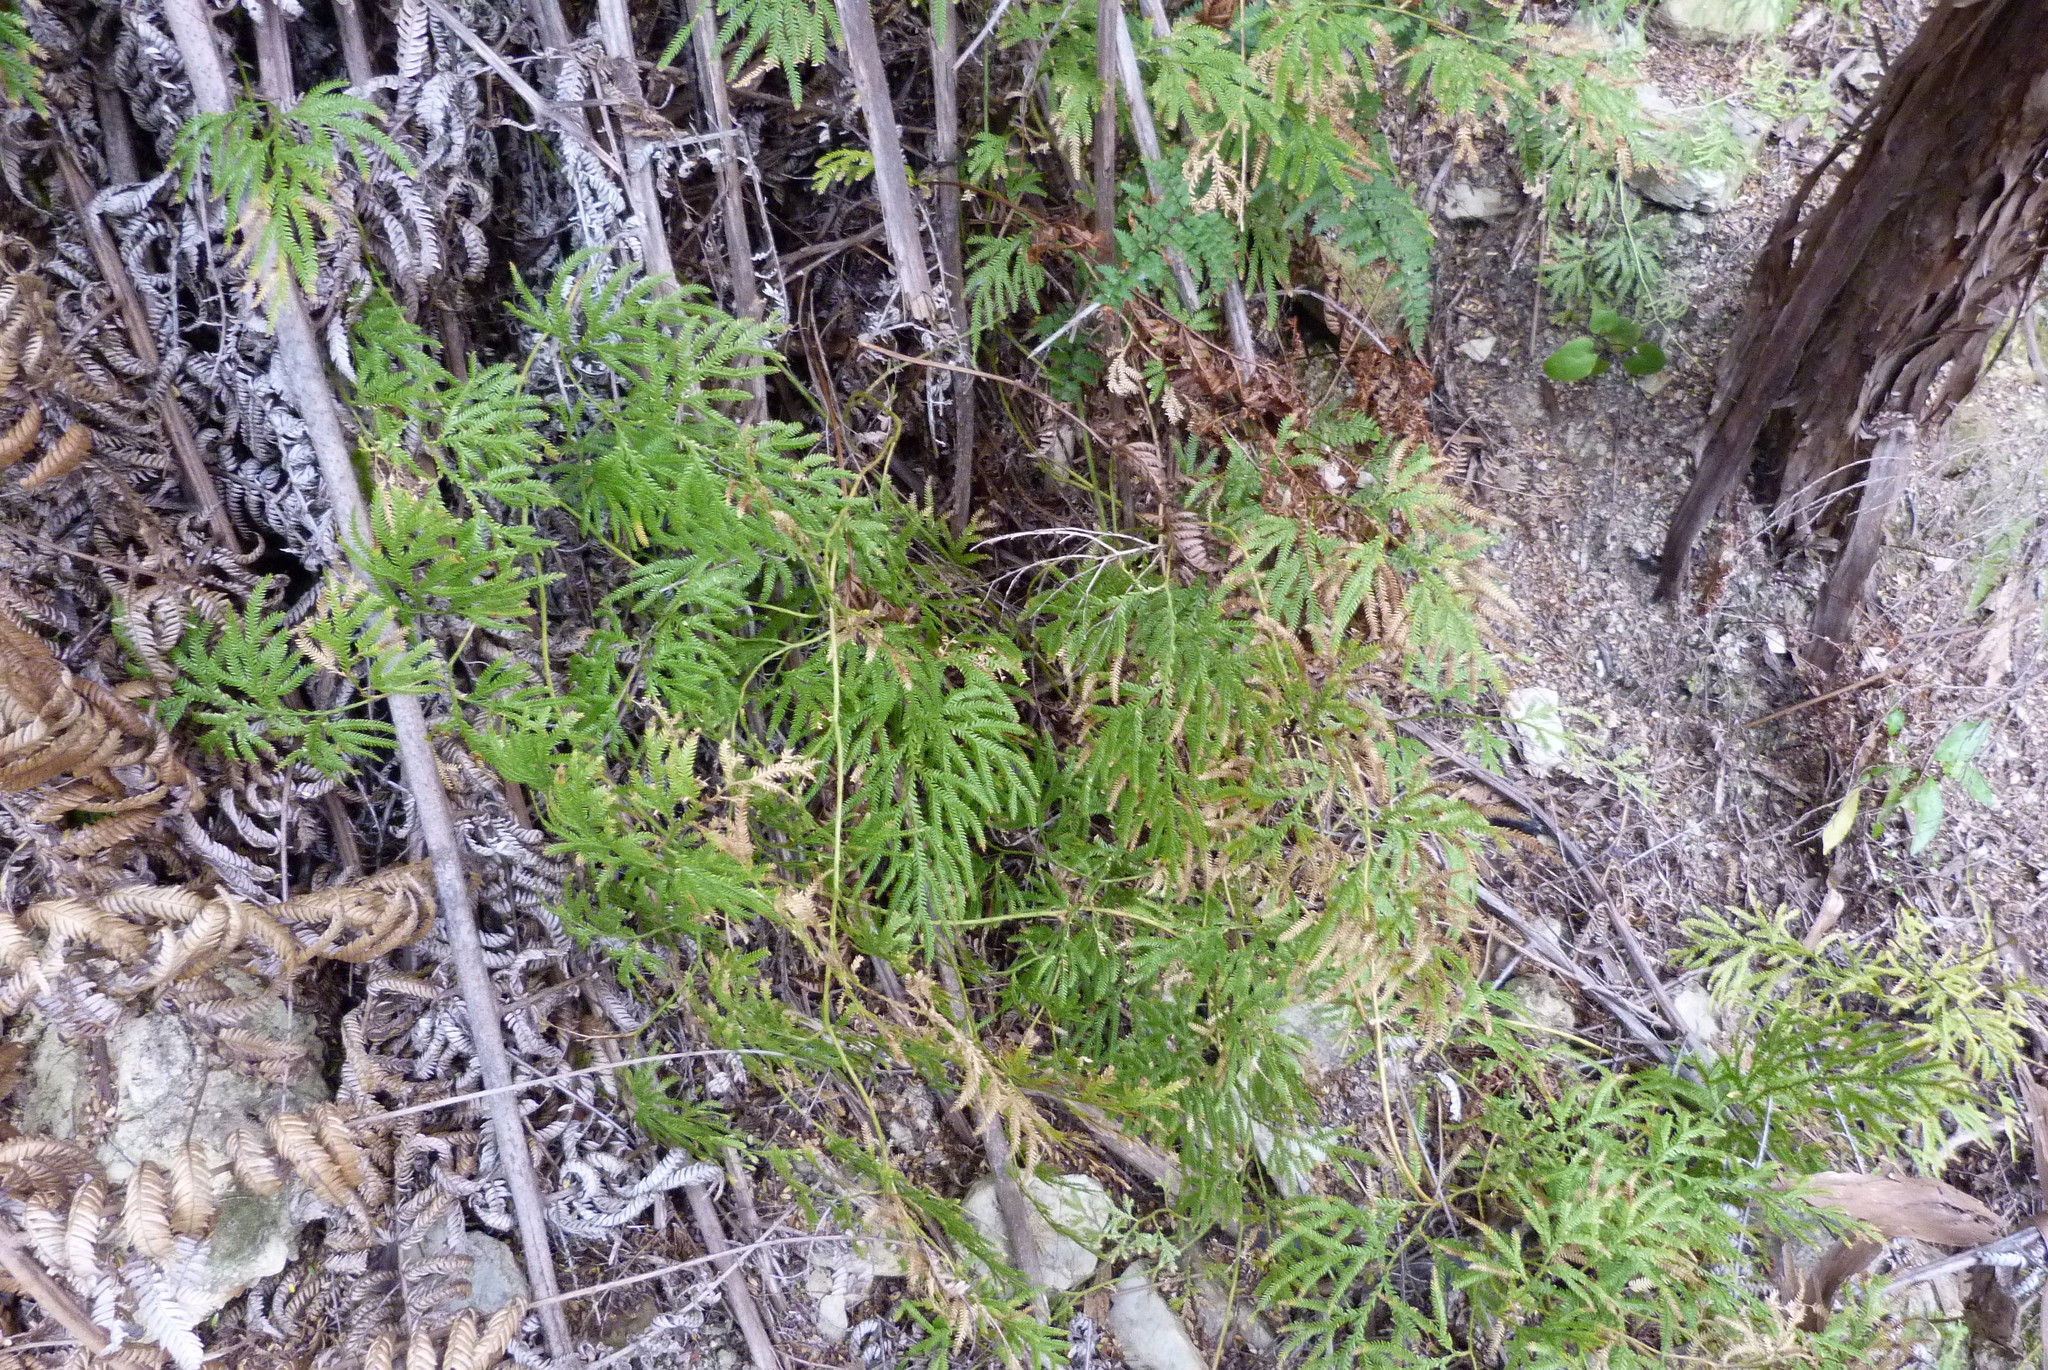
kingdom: Plantae
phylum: Tracheophyta
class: Lycopodiopsida
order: Lycopodiales
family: Lycopodiaceae
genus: Lycopodium
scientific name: Lycopodium volubile
